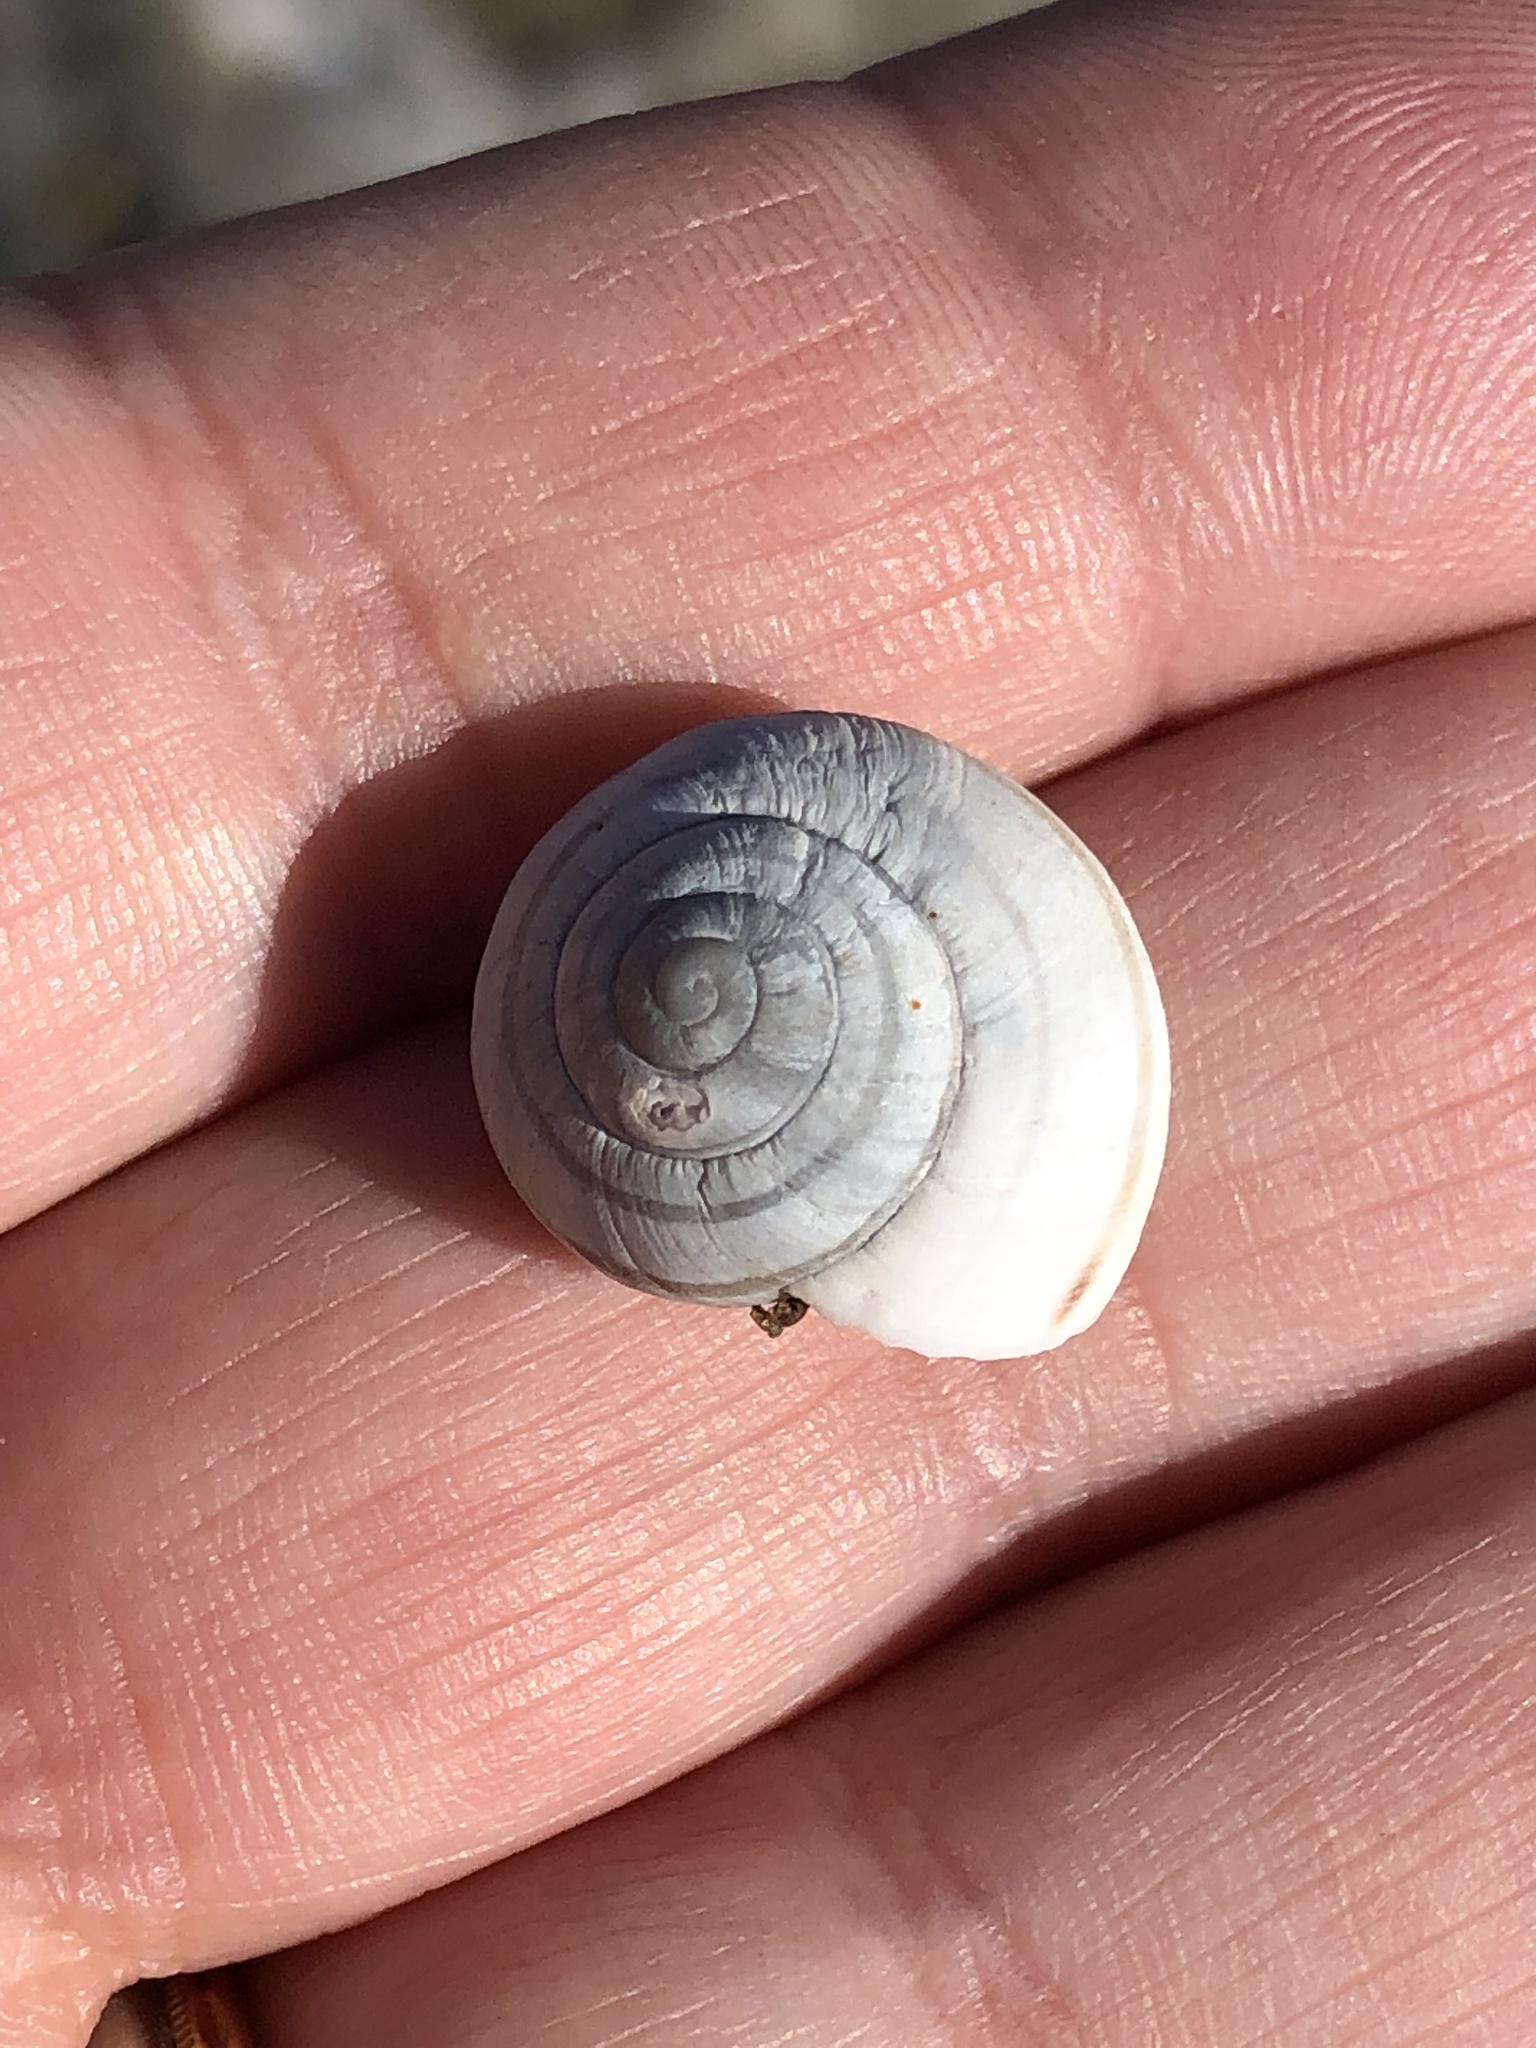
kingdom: Animalia
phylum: Mollusca
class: Gastropoda
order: Stylommatophora
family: Helicidae
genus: Cepaea
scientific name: Cepaea nemoralis
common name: Grovesnail
